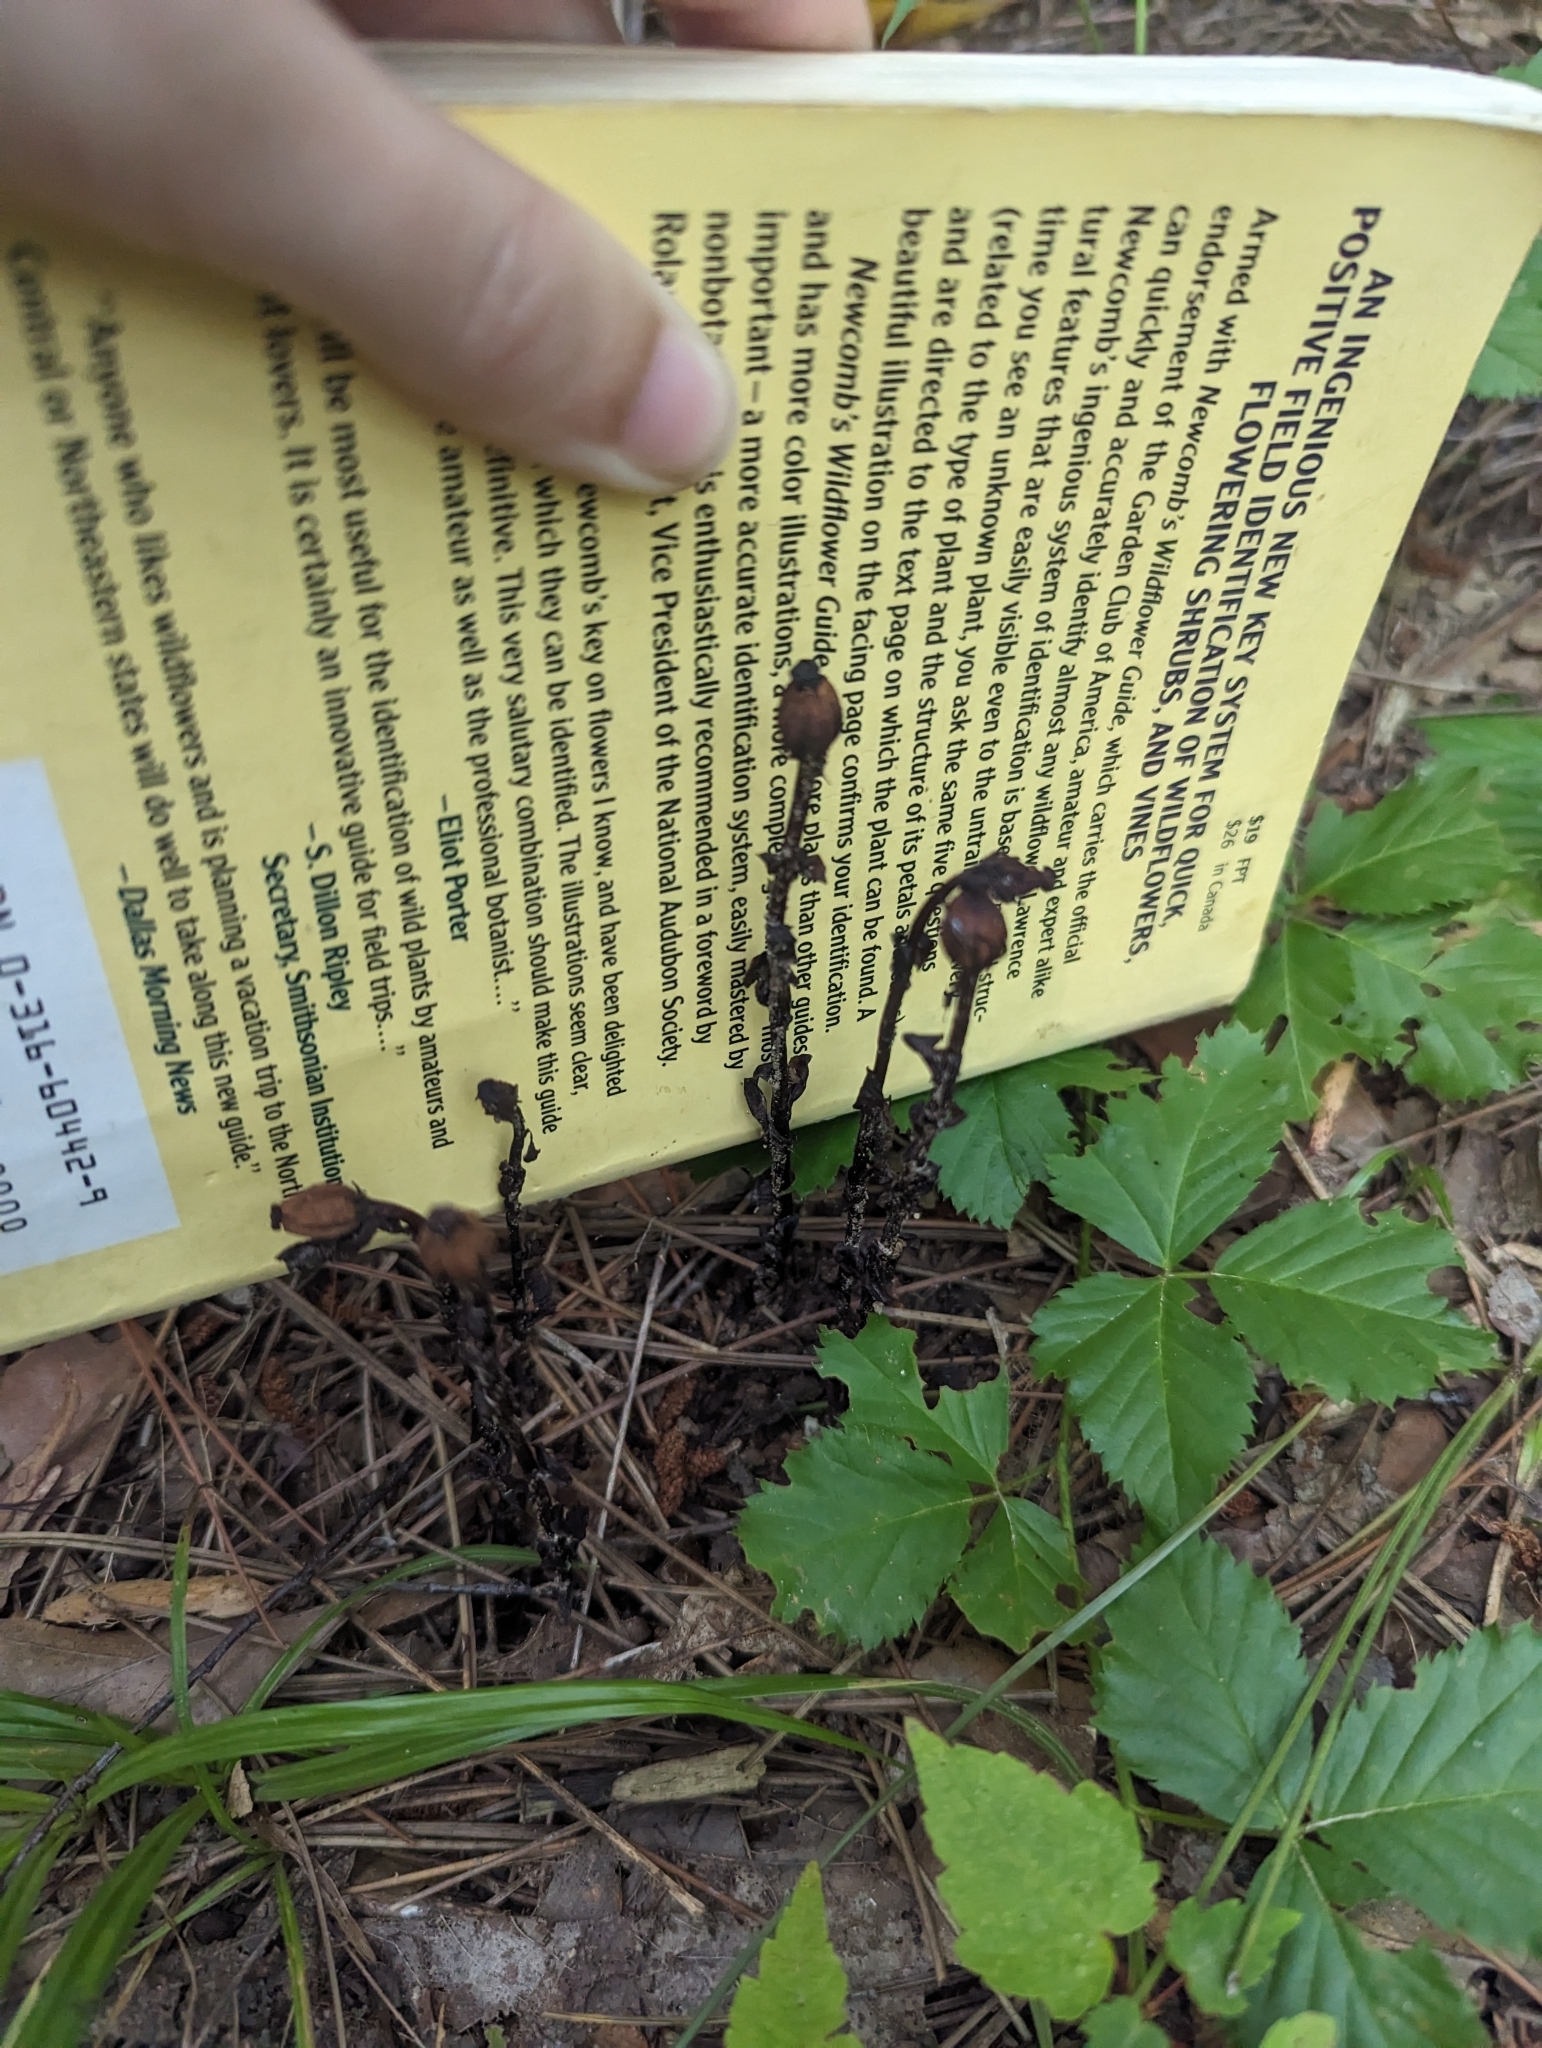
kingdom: Plantae
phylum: Tracheophyta
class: Magnoliopsida
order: Ericales
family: Ericaceae
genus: Monotropa
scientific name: Monotropa uniflora
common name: Convulsion root
